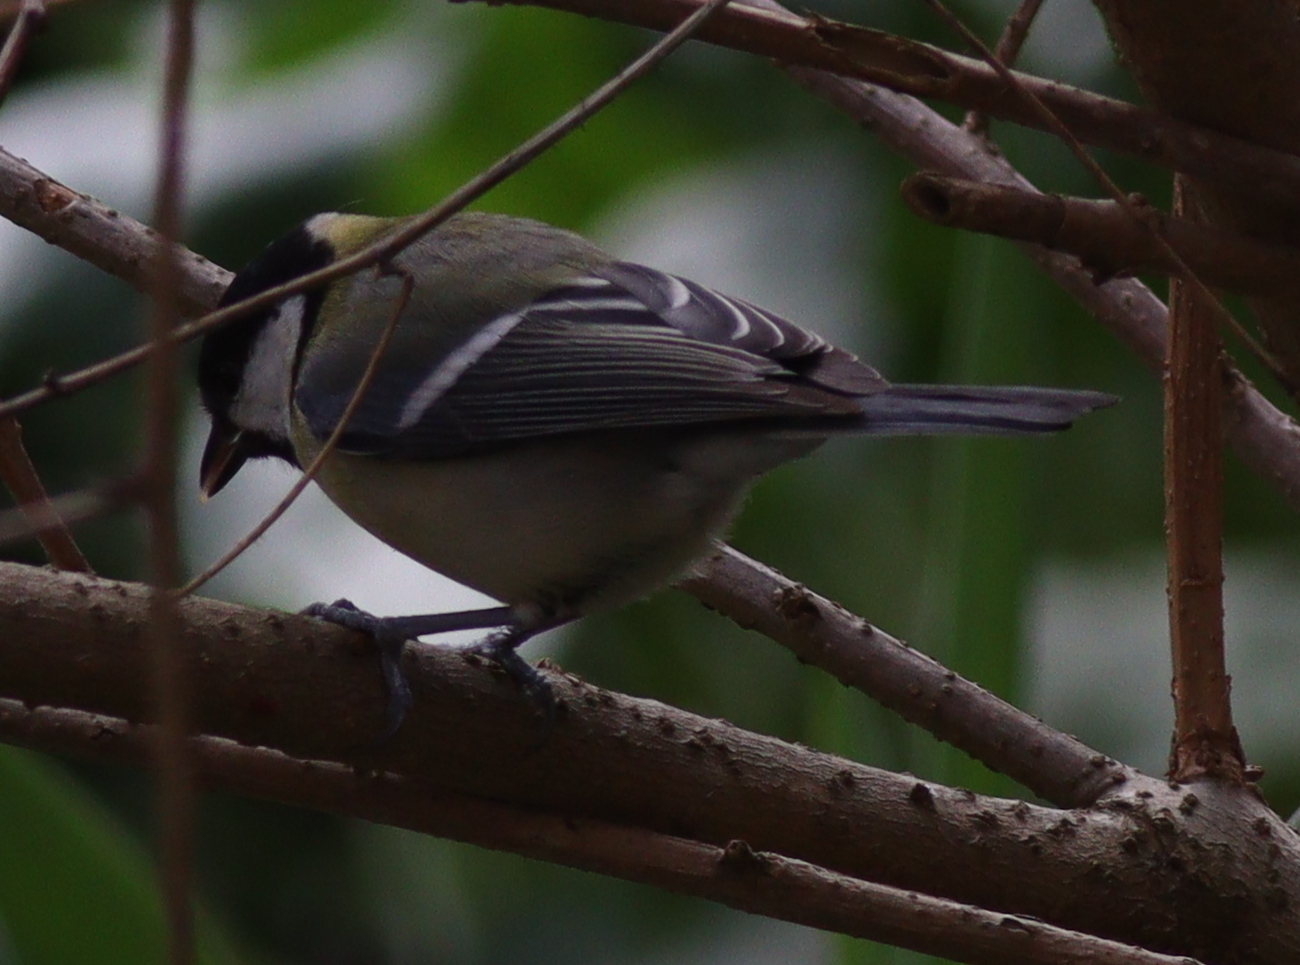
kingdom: Animalia
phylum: Chordata
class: Aves
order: Passeriformes
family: Paridae
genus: Parus
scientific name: Parus major
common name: Great tit
